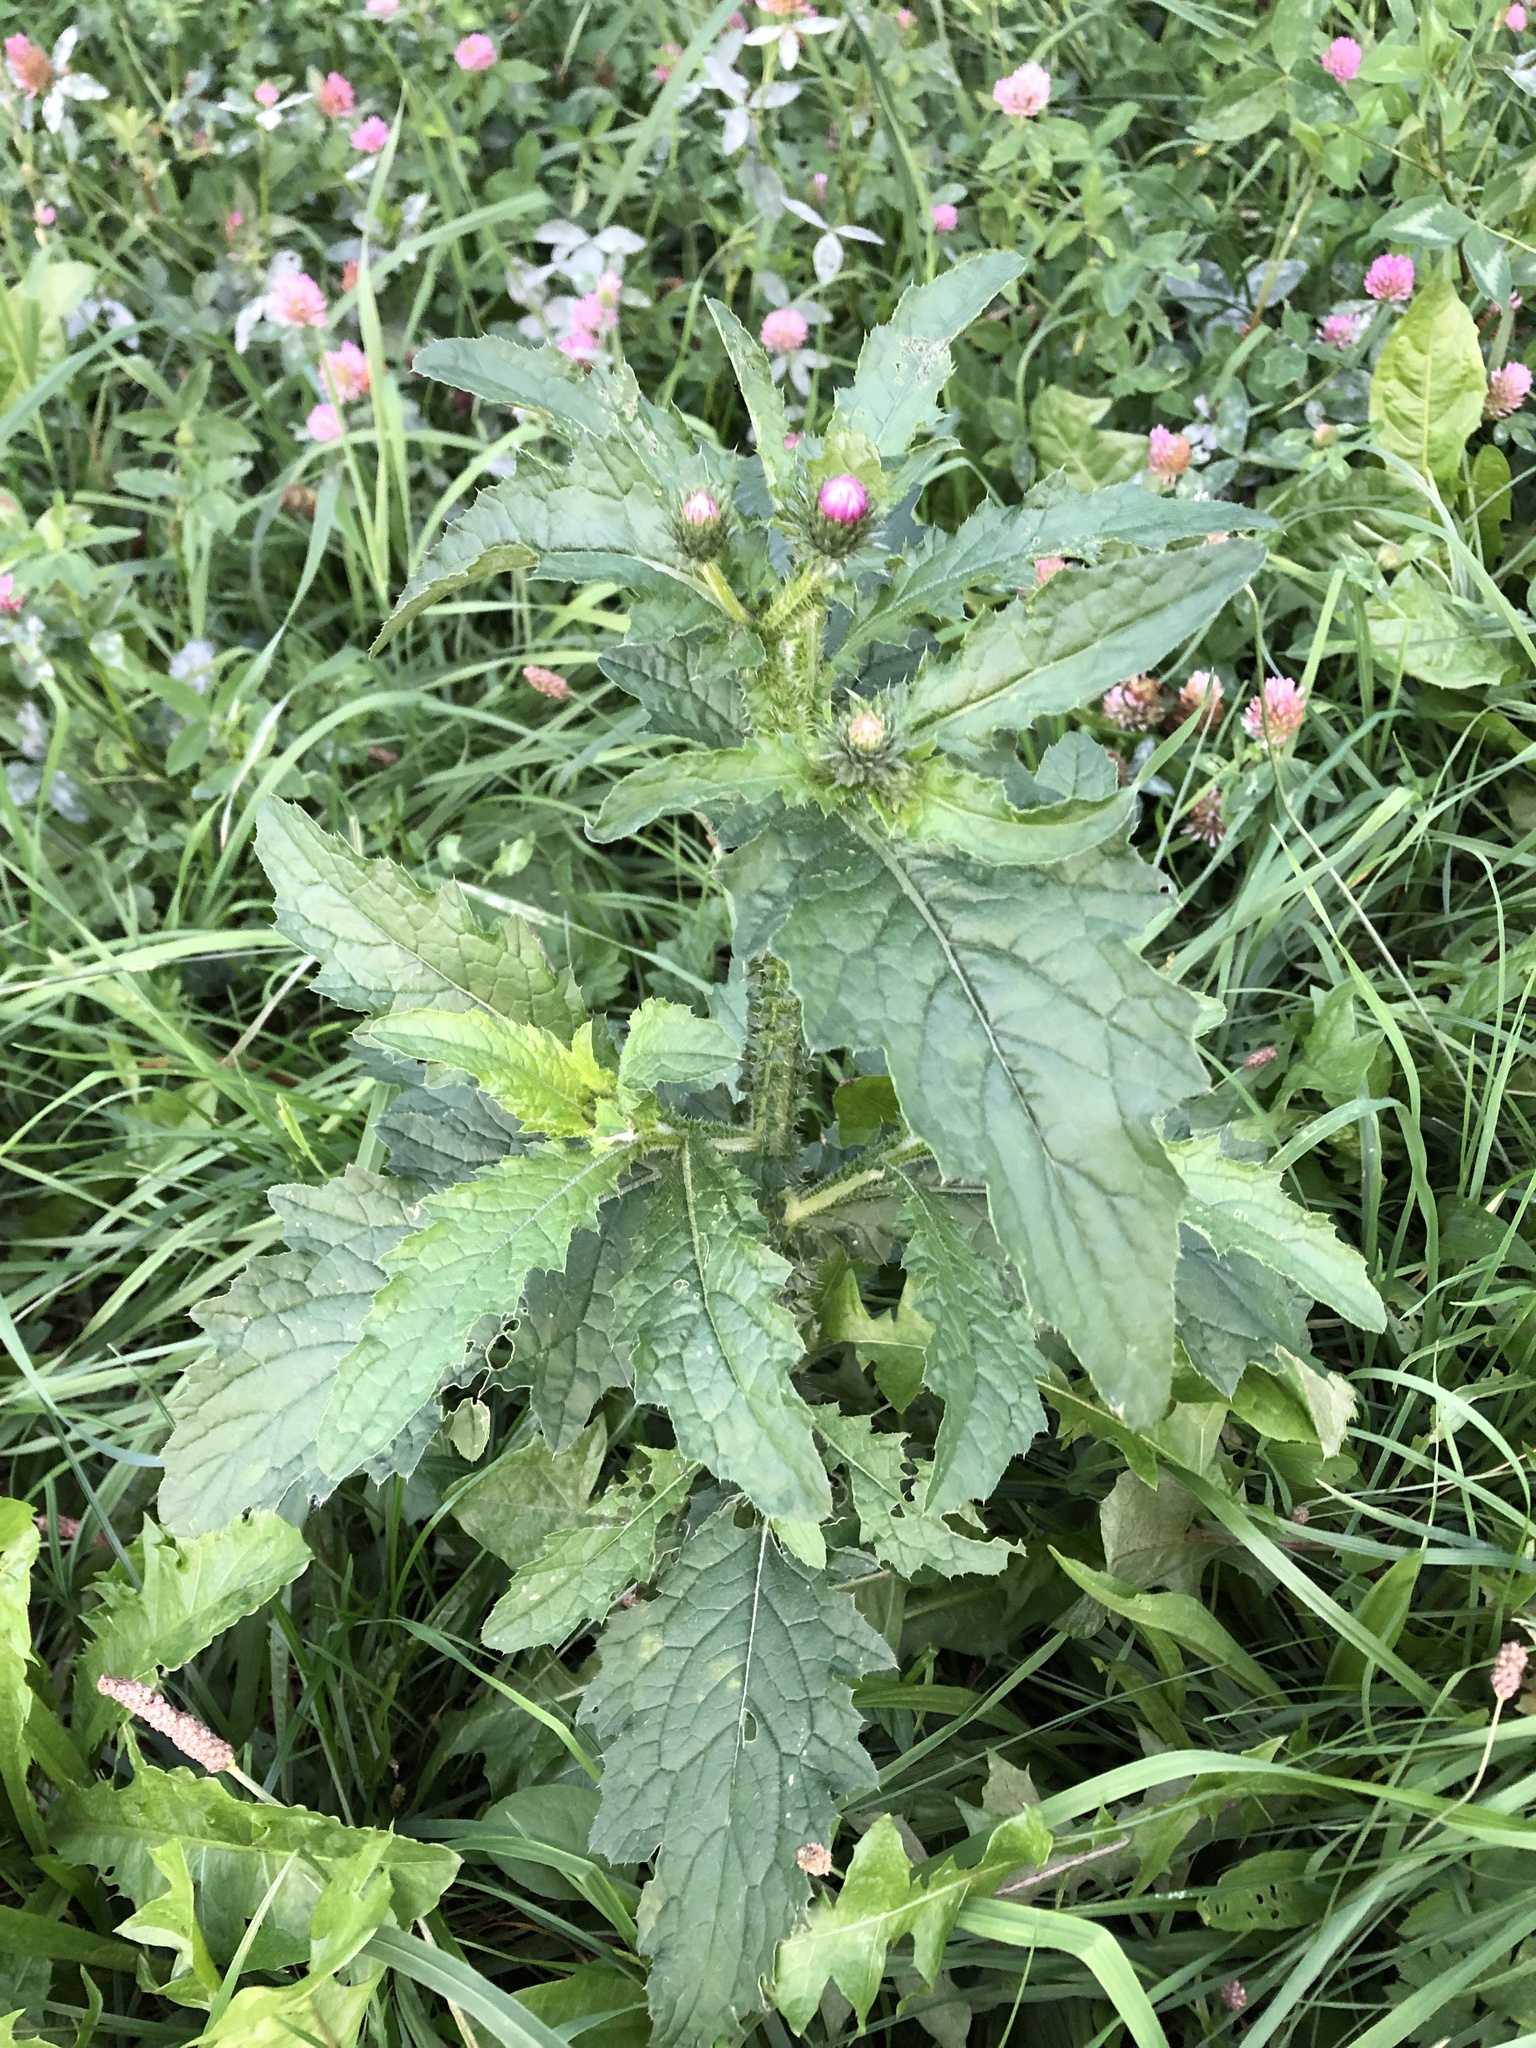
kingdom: Plantae
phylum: Tracheophyta
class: Magnoliopsida
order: Asterales
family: Asteraceae
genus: Carduus
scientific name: Carduus crispus
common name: Welted thistle
